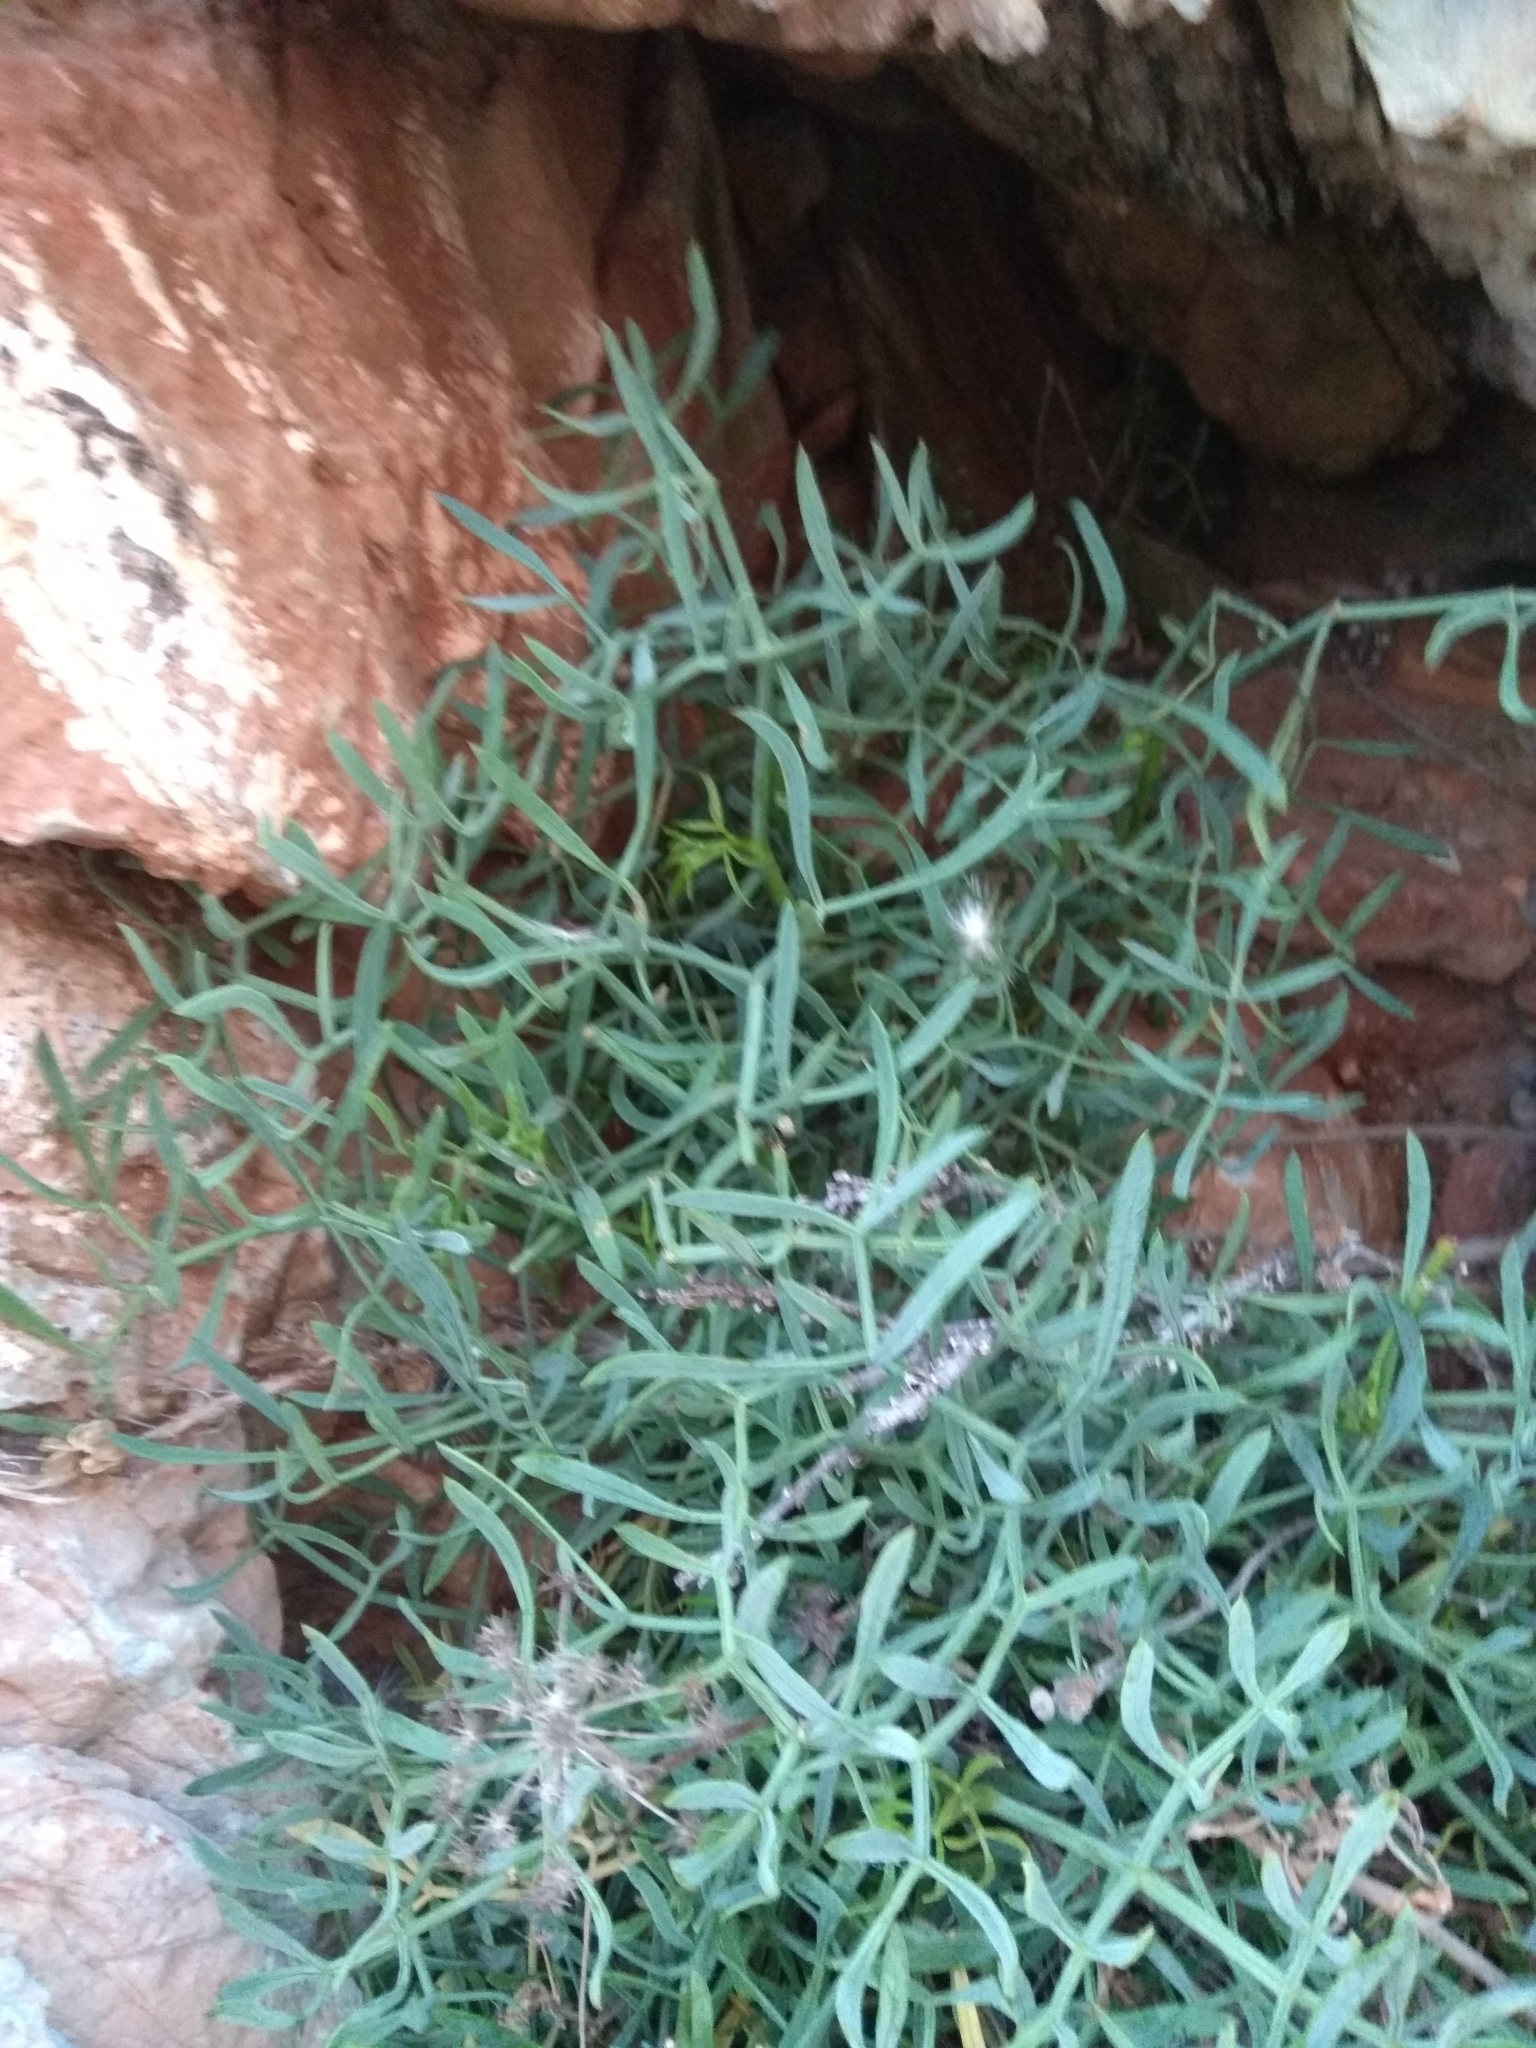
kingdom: Plantae
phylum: Tracheophyta
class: Magnoliopsida
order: Apiales
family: Apiaceae
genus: Crithmum
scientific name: Crithmum maritimum
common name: Rock samphire
